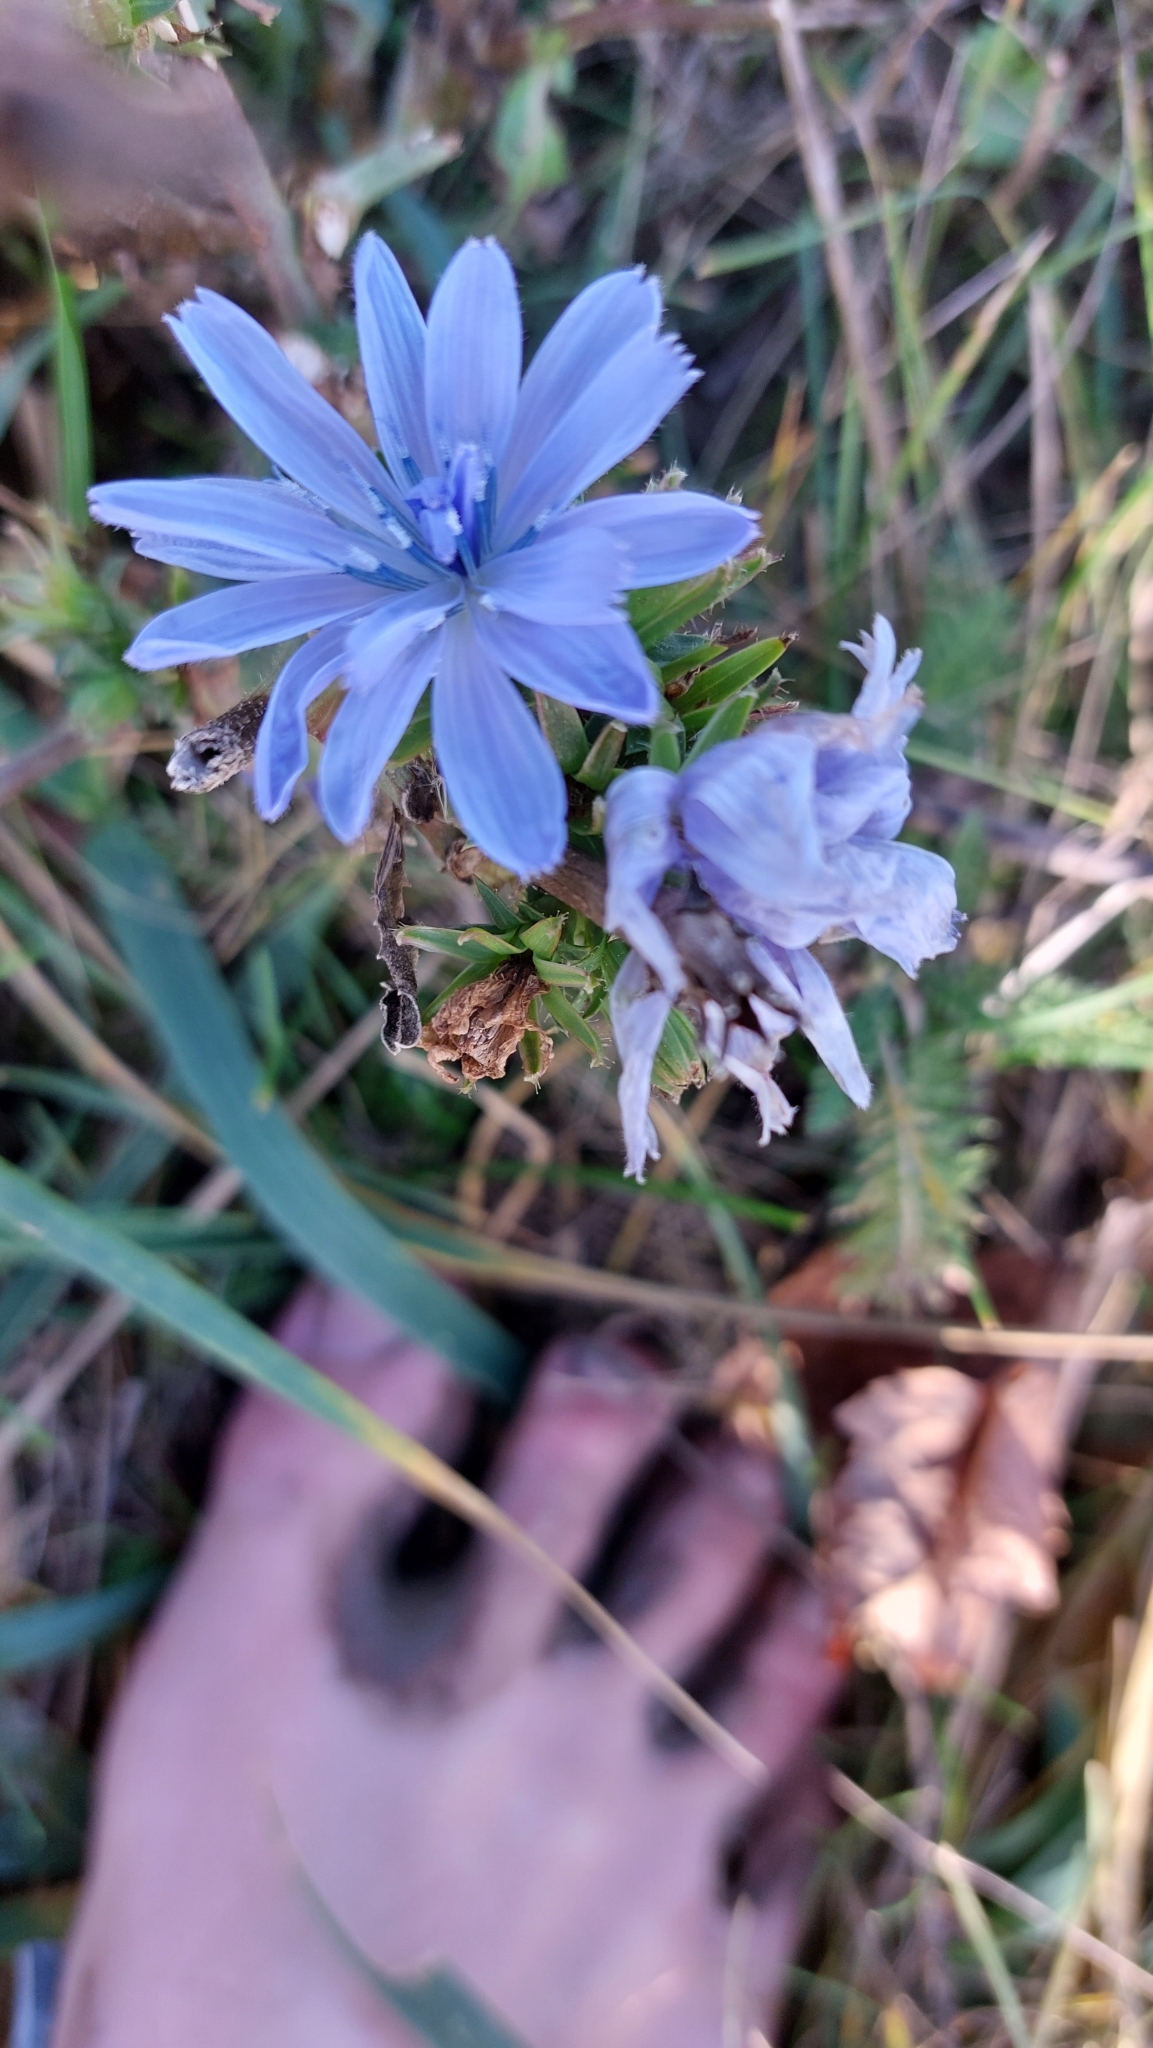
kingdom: Plantae
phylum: Tracheophyta
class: Magnoliopsida
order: Asterales
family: Asteraceae
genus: Cichorium
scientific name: Cichorium intybus
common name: Chicory
